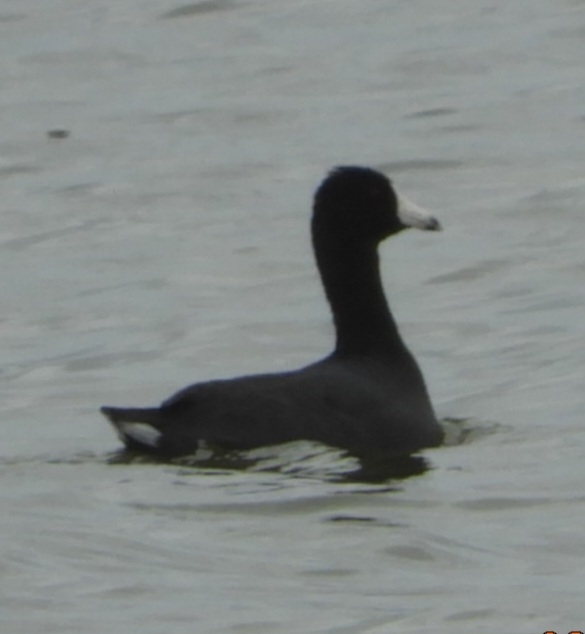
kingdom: Animalia
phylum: Chordata
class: Aves
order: Gruiformes
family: Rallidae
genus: Fulica
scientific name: Fulica americana
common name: American coot
